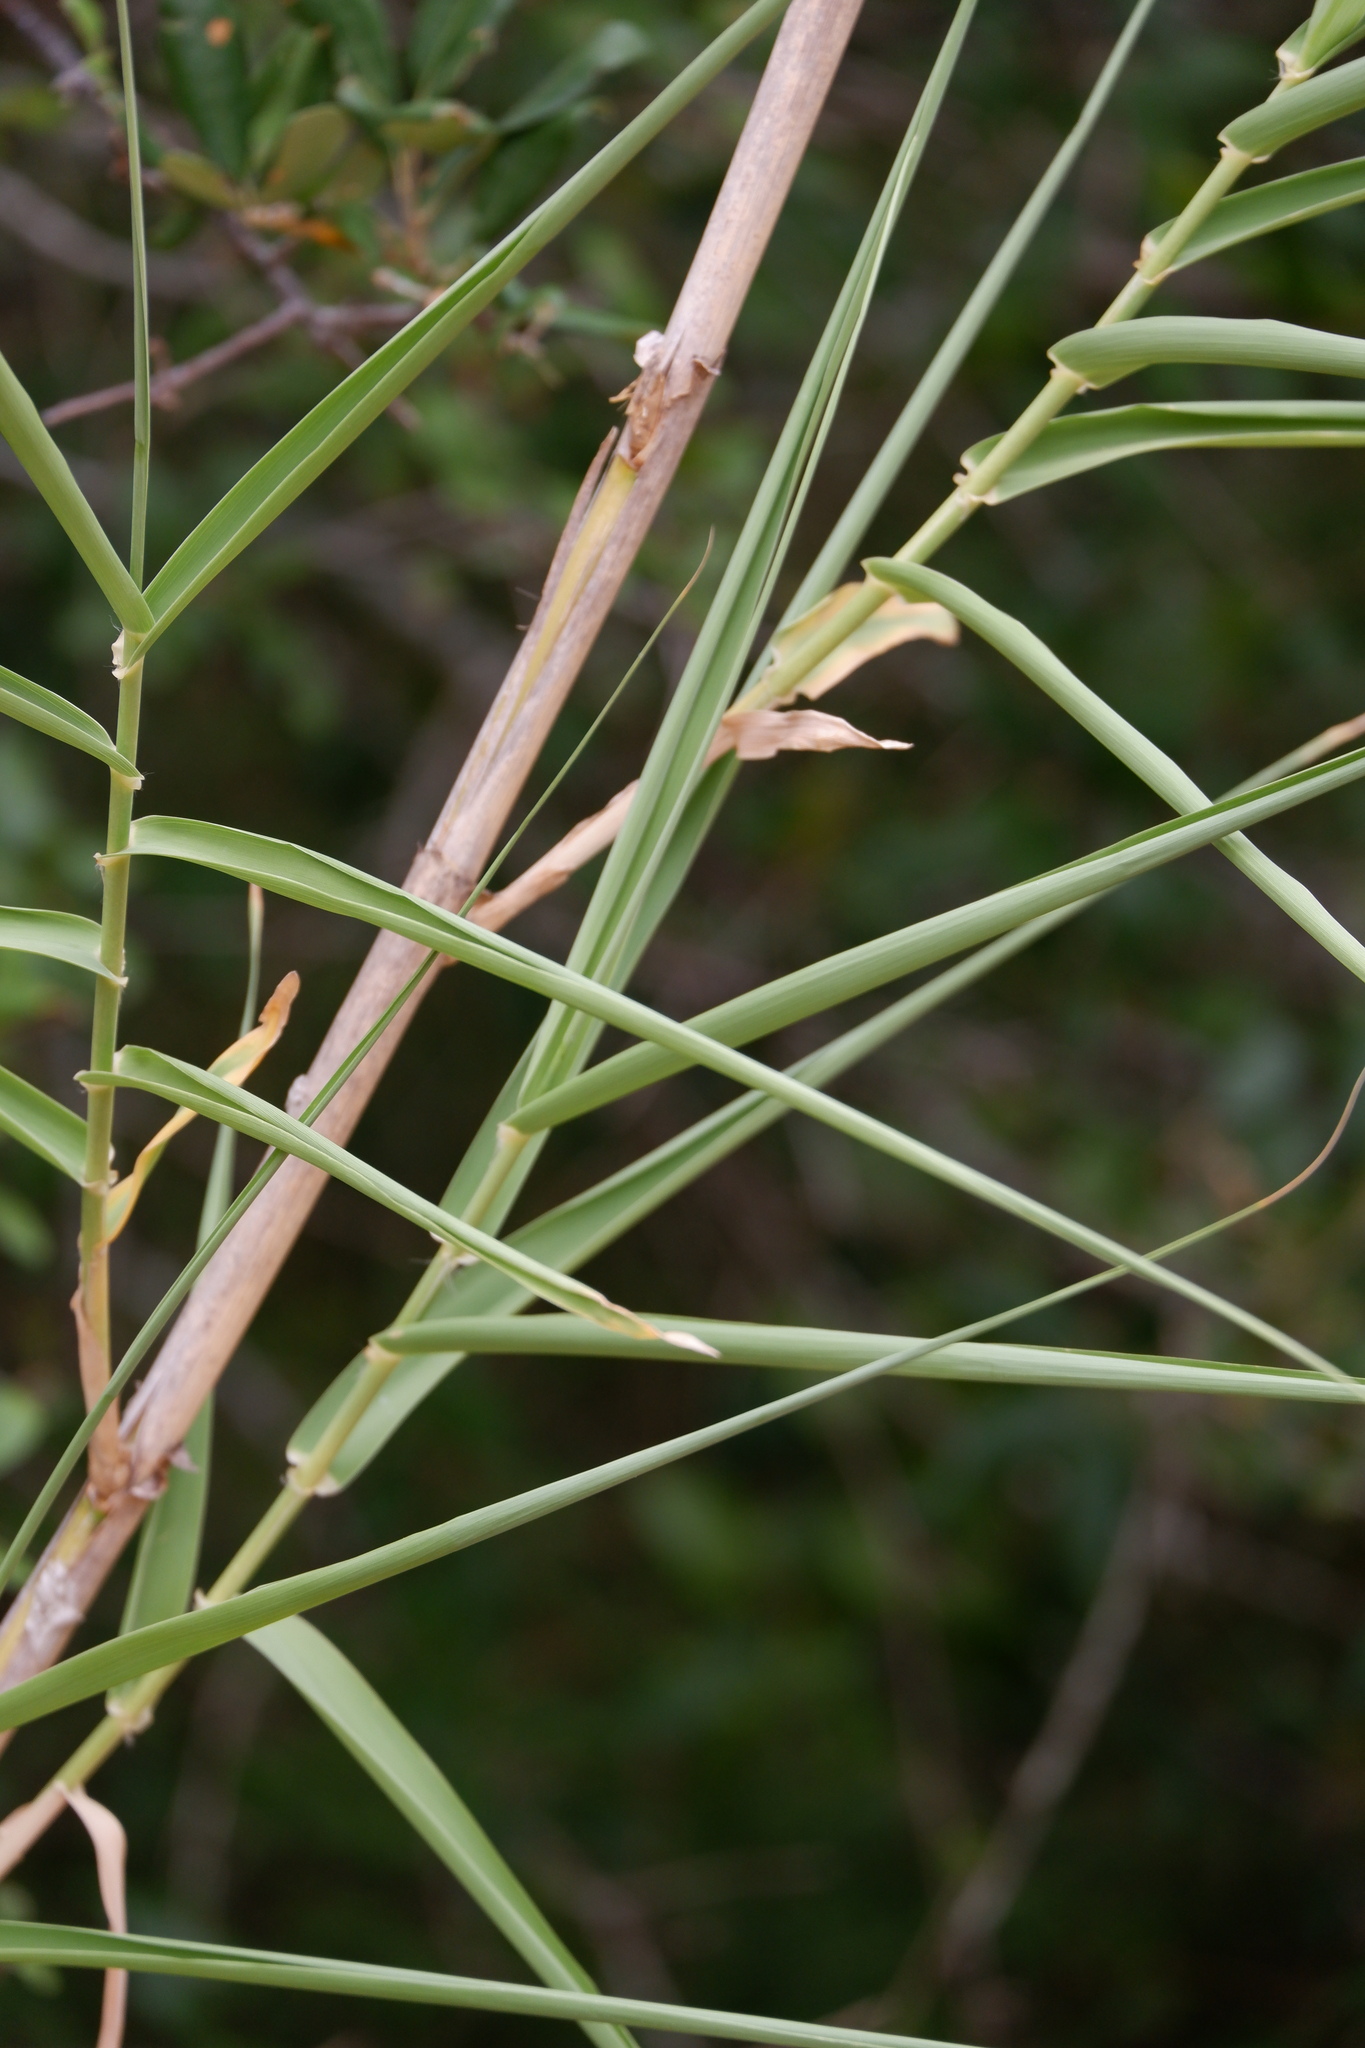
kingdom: Plantae
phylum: Tracheophyta
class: Liliopsida
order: Poales
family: Poaceae
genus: Arundo
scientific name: Arundo donax
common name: Giant reed
